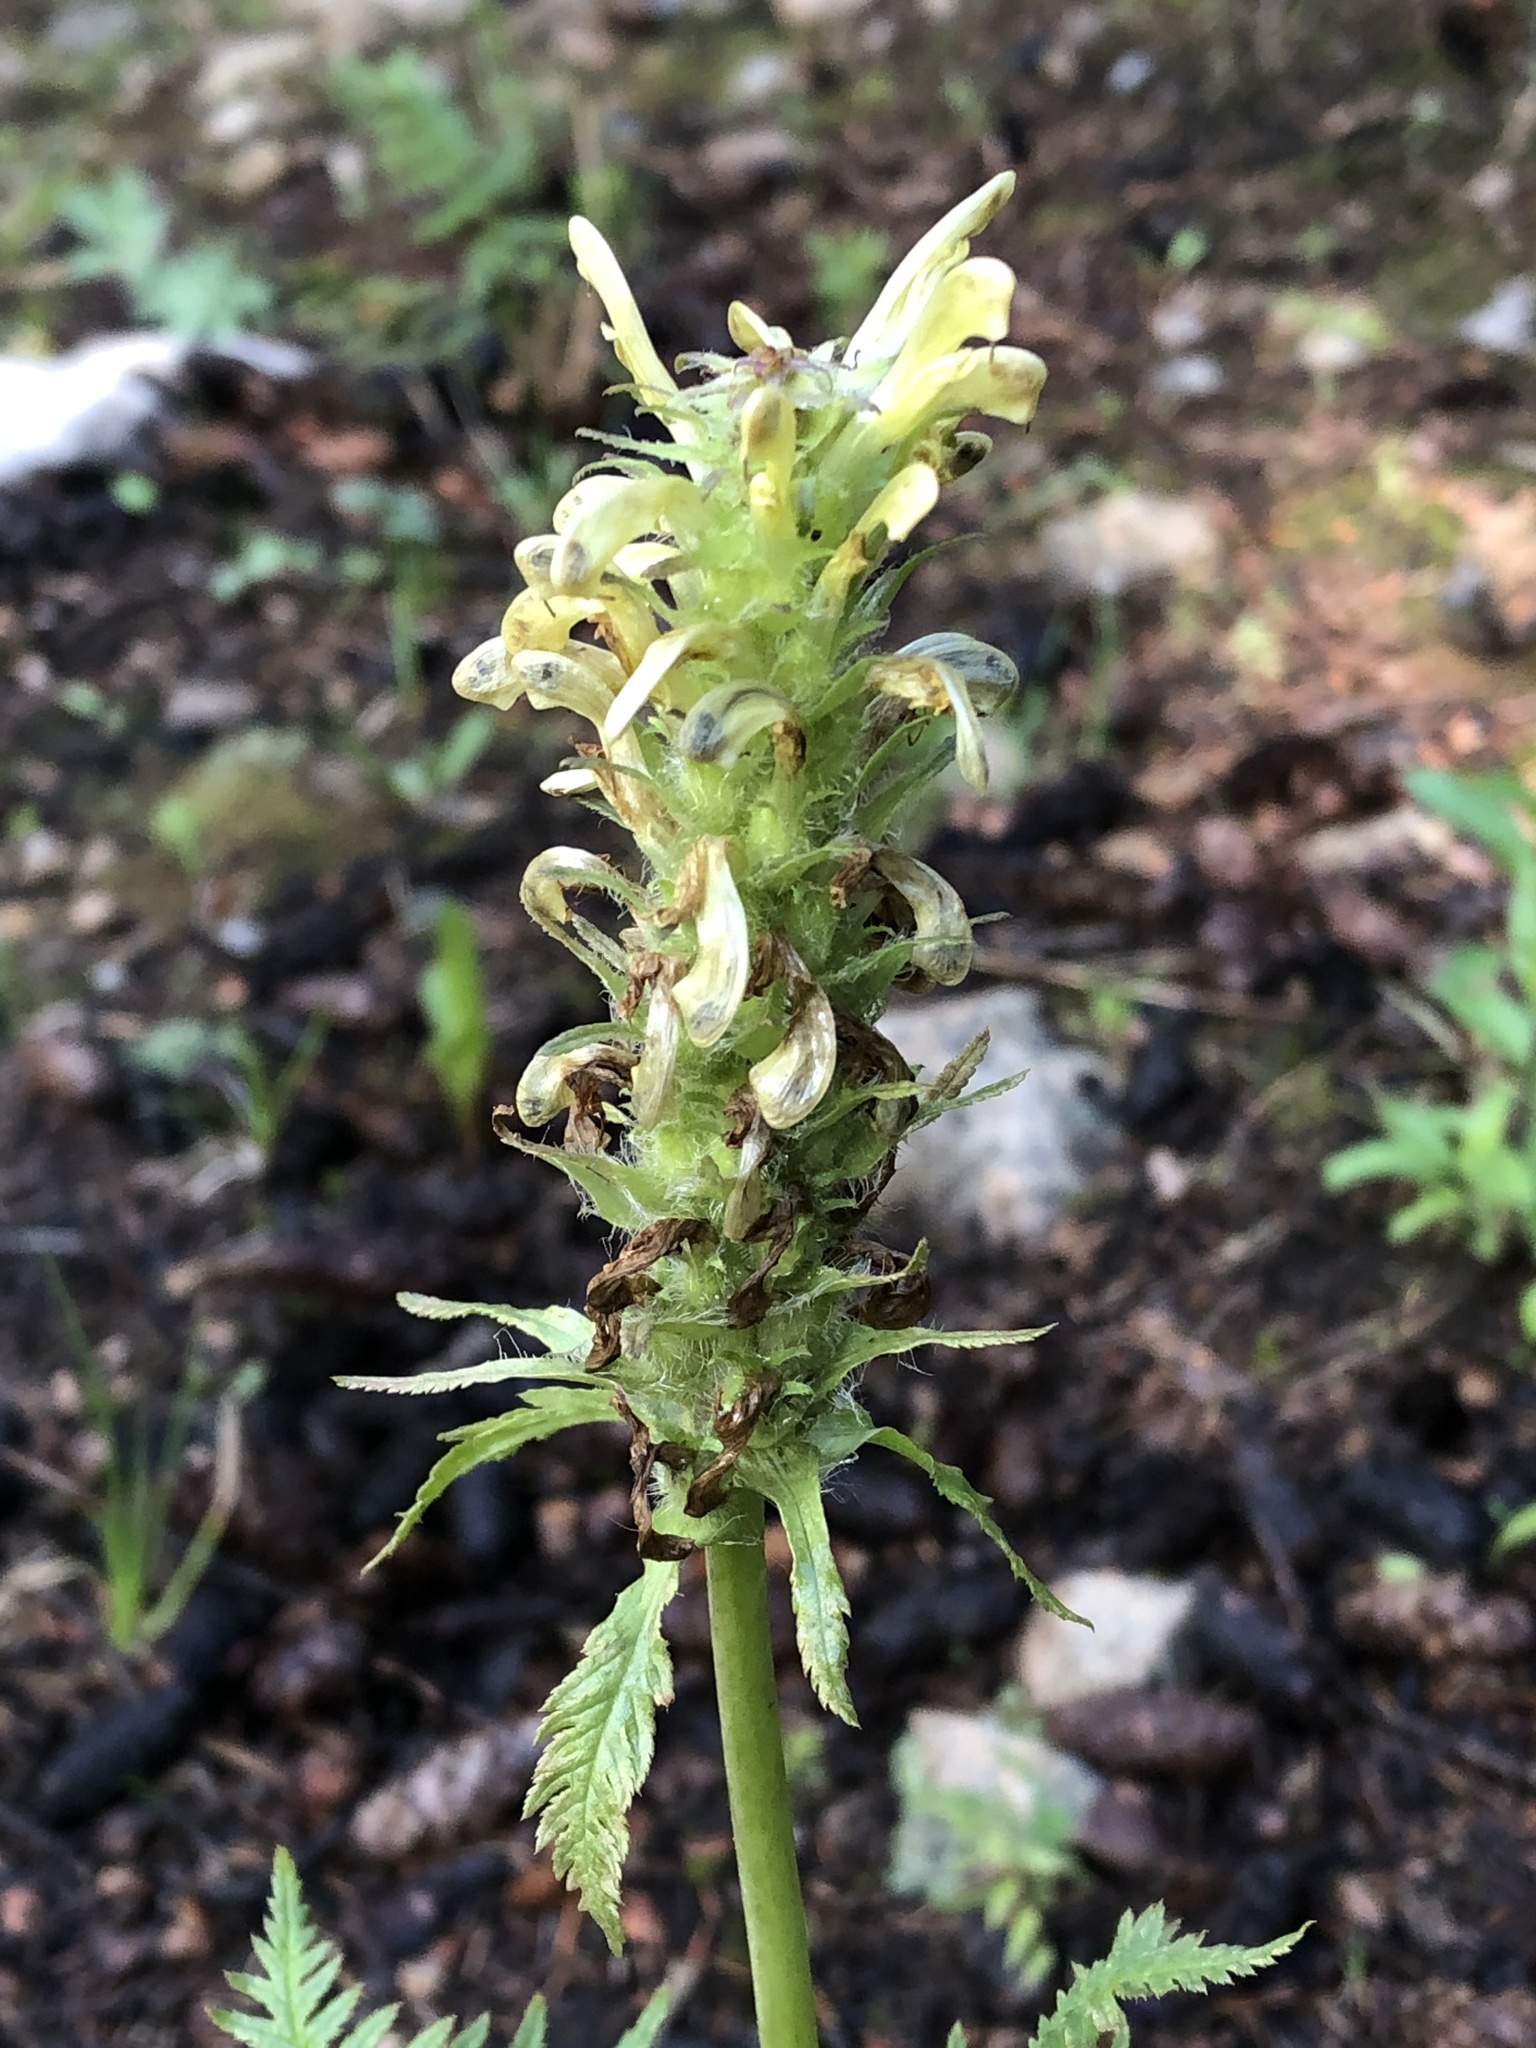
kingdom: Plantae
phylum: Tracheophyta
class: Magnoliopsida
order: Lamiales
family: Orobanchaceae
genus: Pedicularis
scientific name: Pedicularis bracteosa
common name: Bracted lousewort
